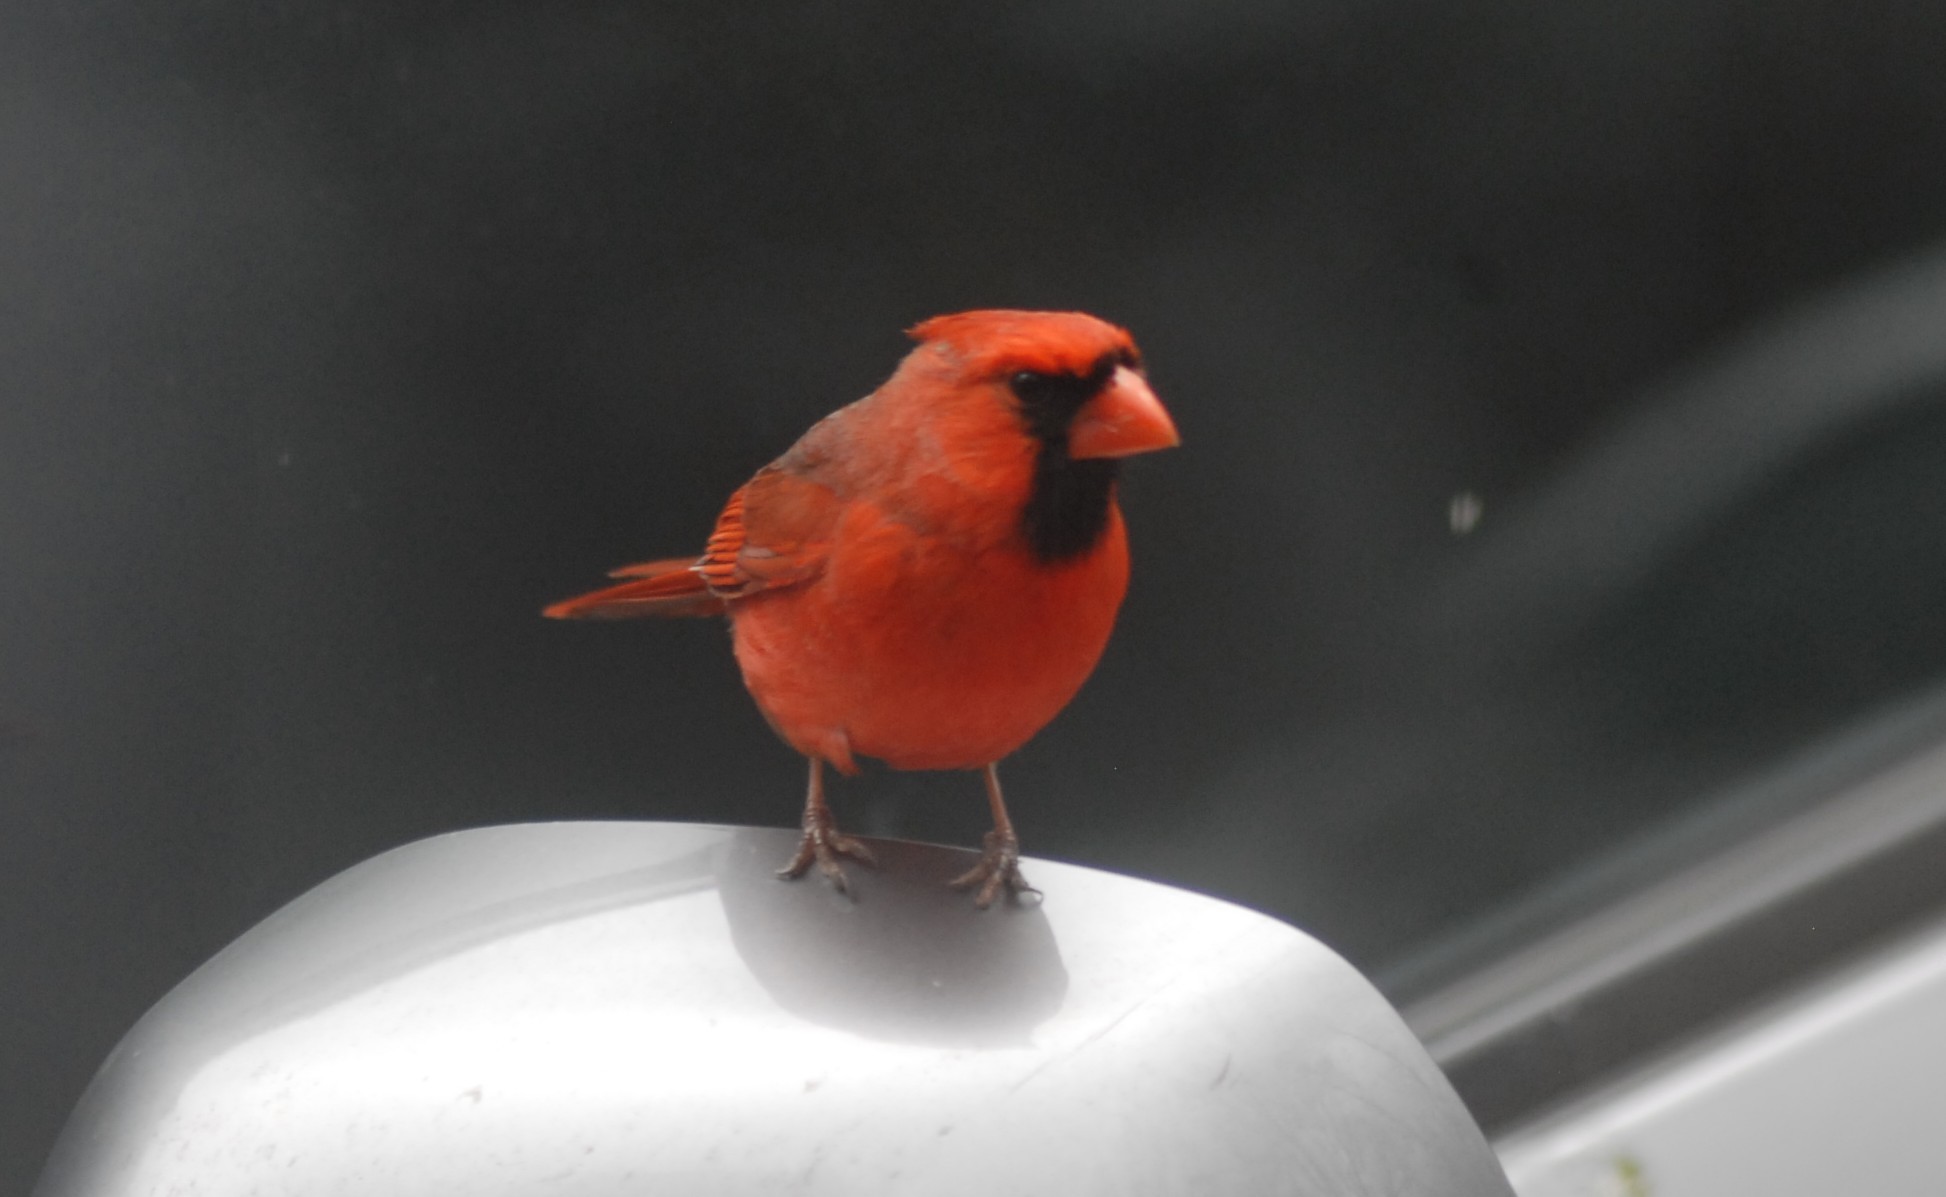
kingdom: Animalia
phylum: Chordata
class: Aves
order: Passeriformes
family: Cardinalidae
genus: Cardinalis
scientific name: Cardinalis cardinalis
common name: Northern cardinal
